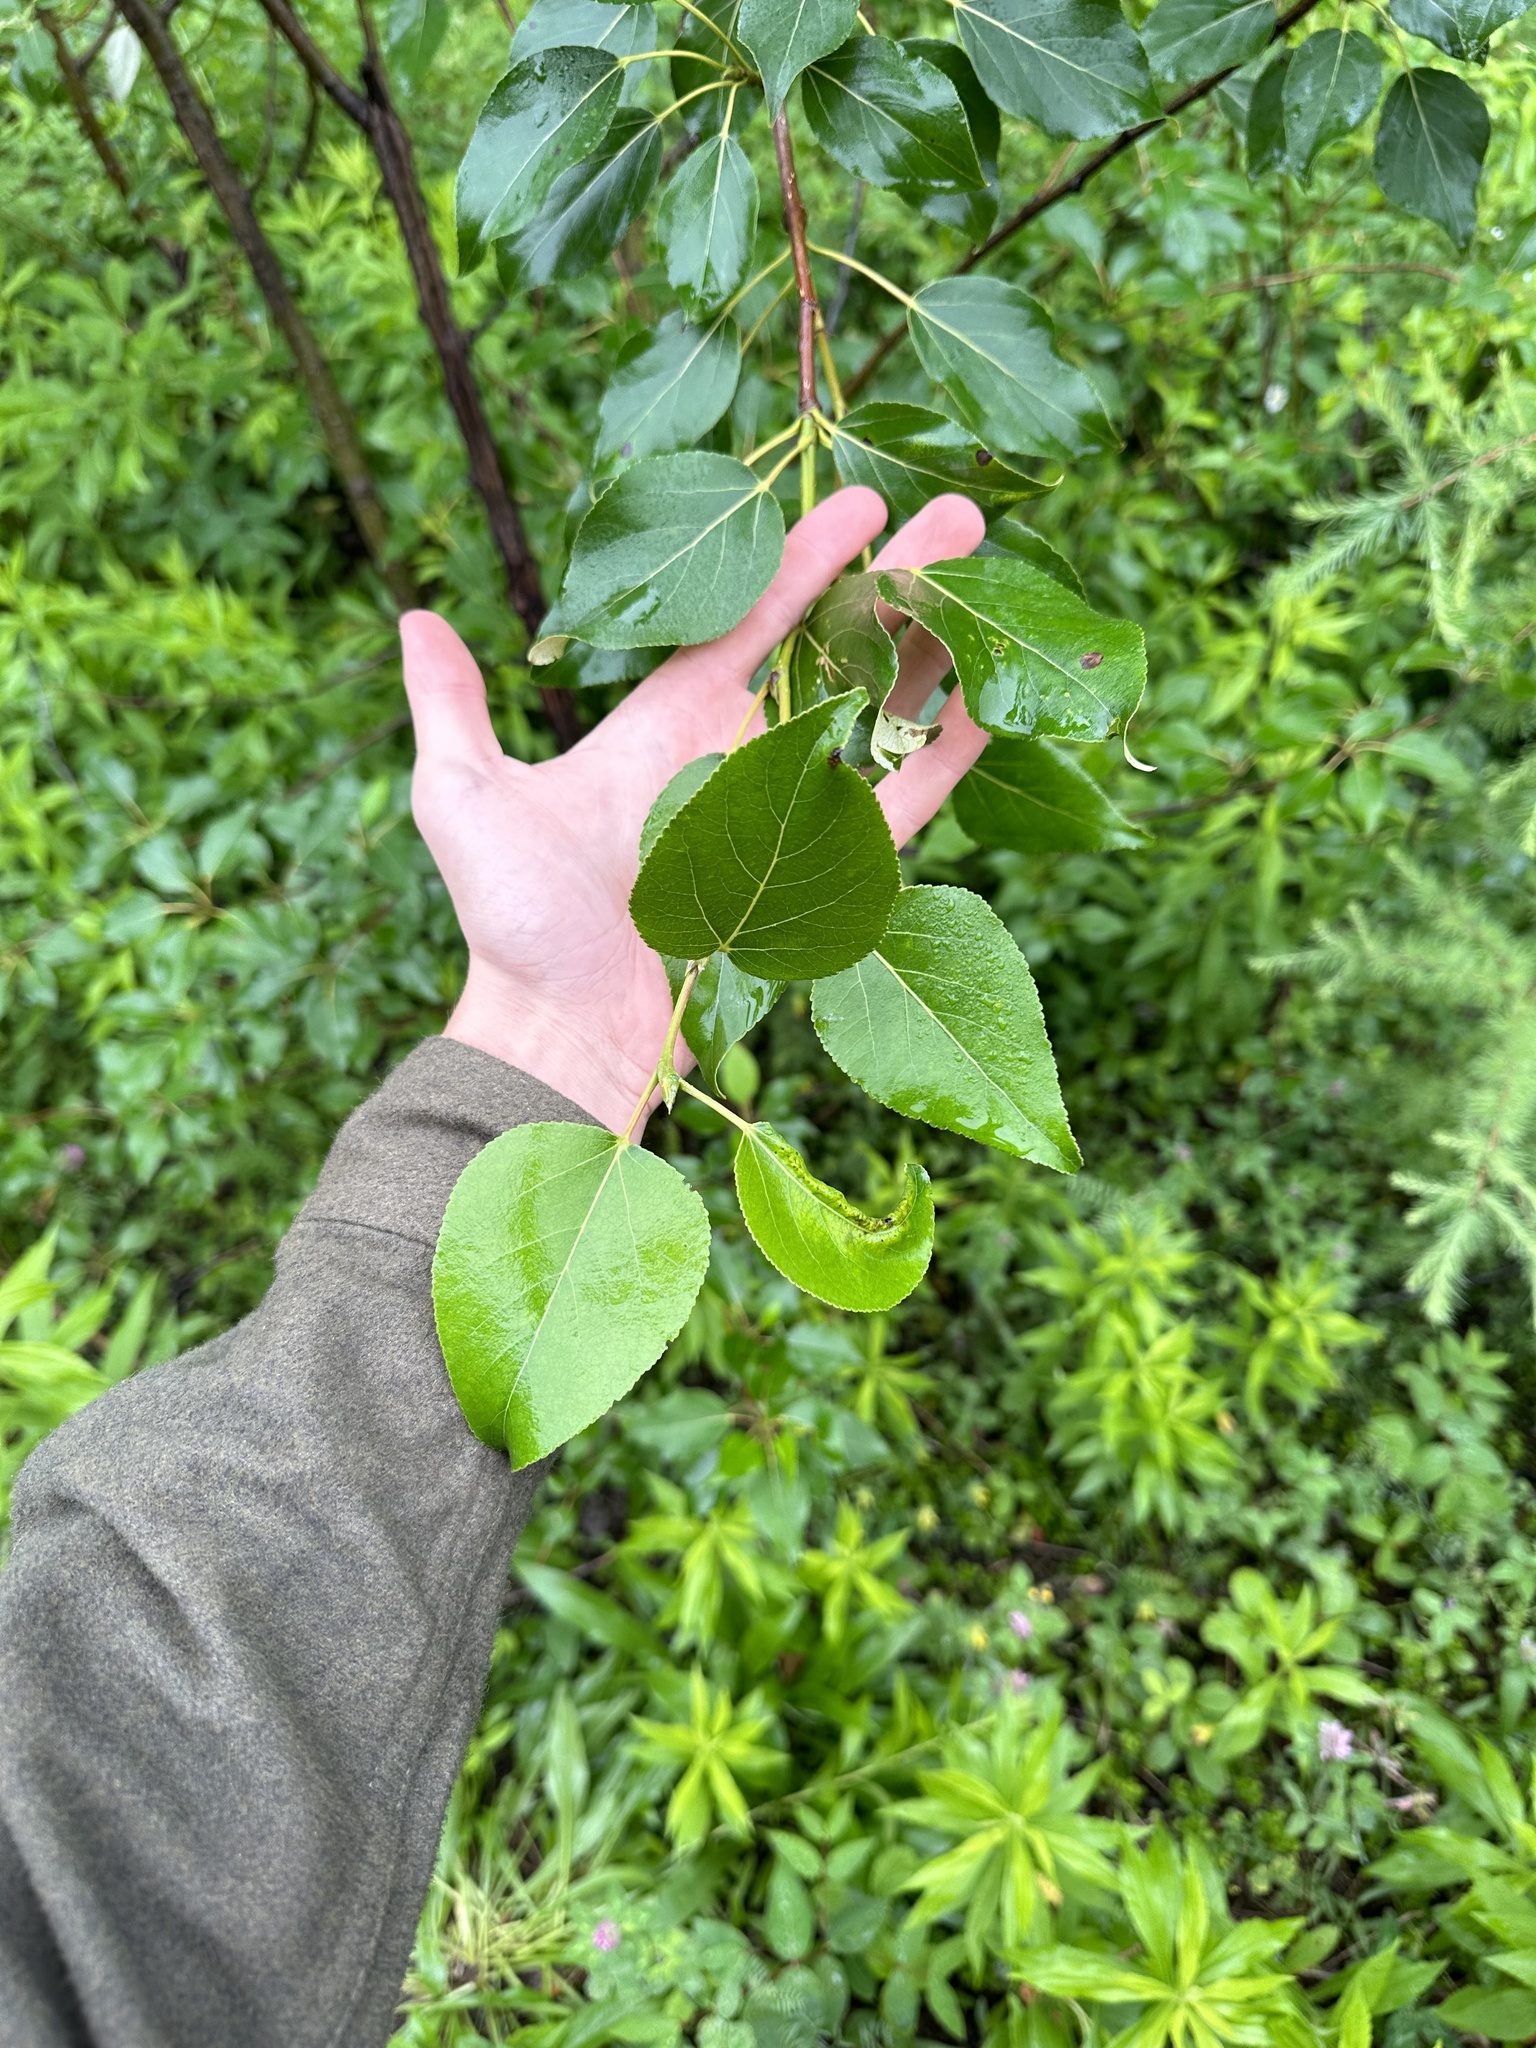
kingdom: Plantae
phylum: Tracheophyta
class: Magnoliopsida
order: Malpighiales
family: Salicaceae
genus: Populus
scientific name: Populus balsamifera
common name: Balsam poplar
